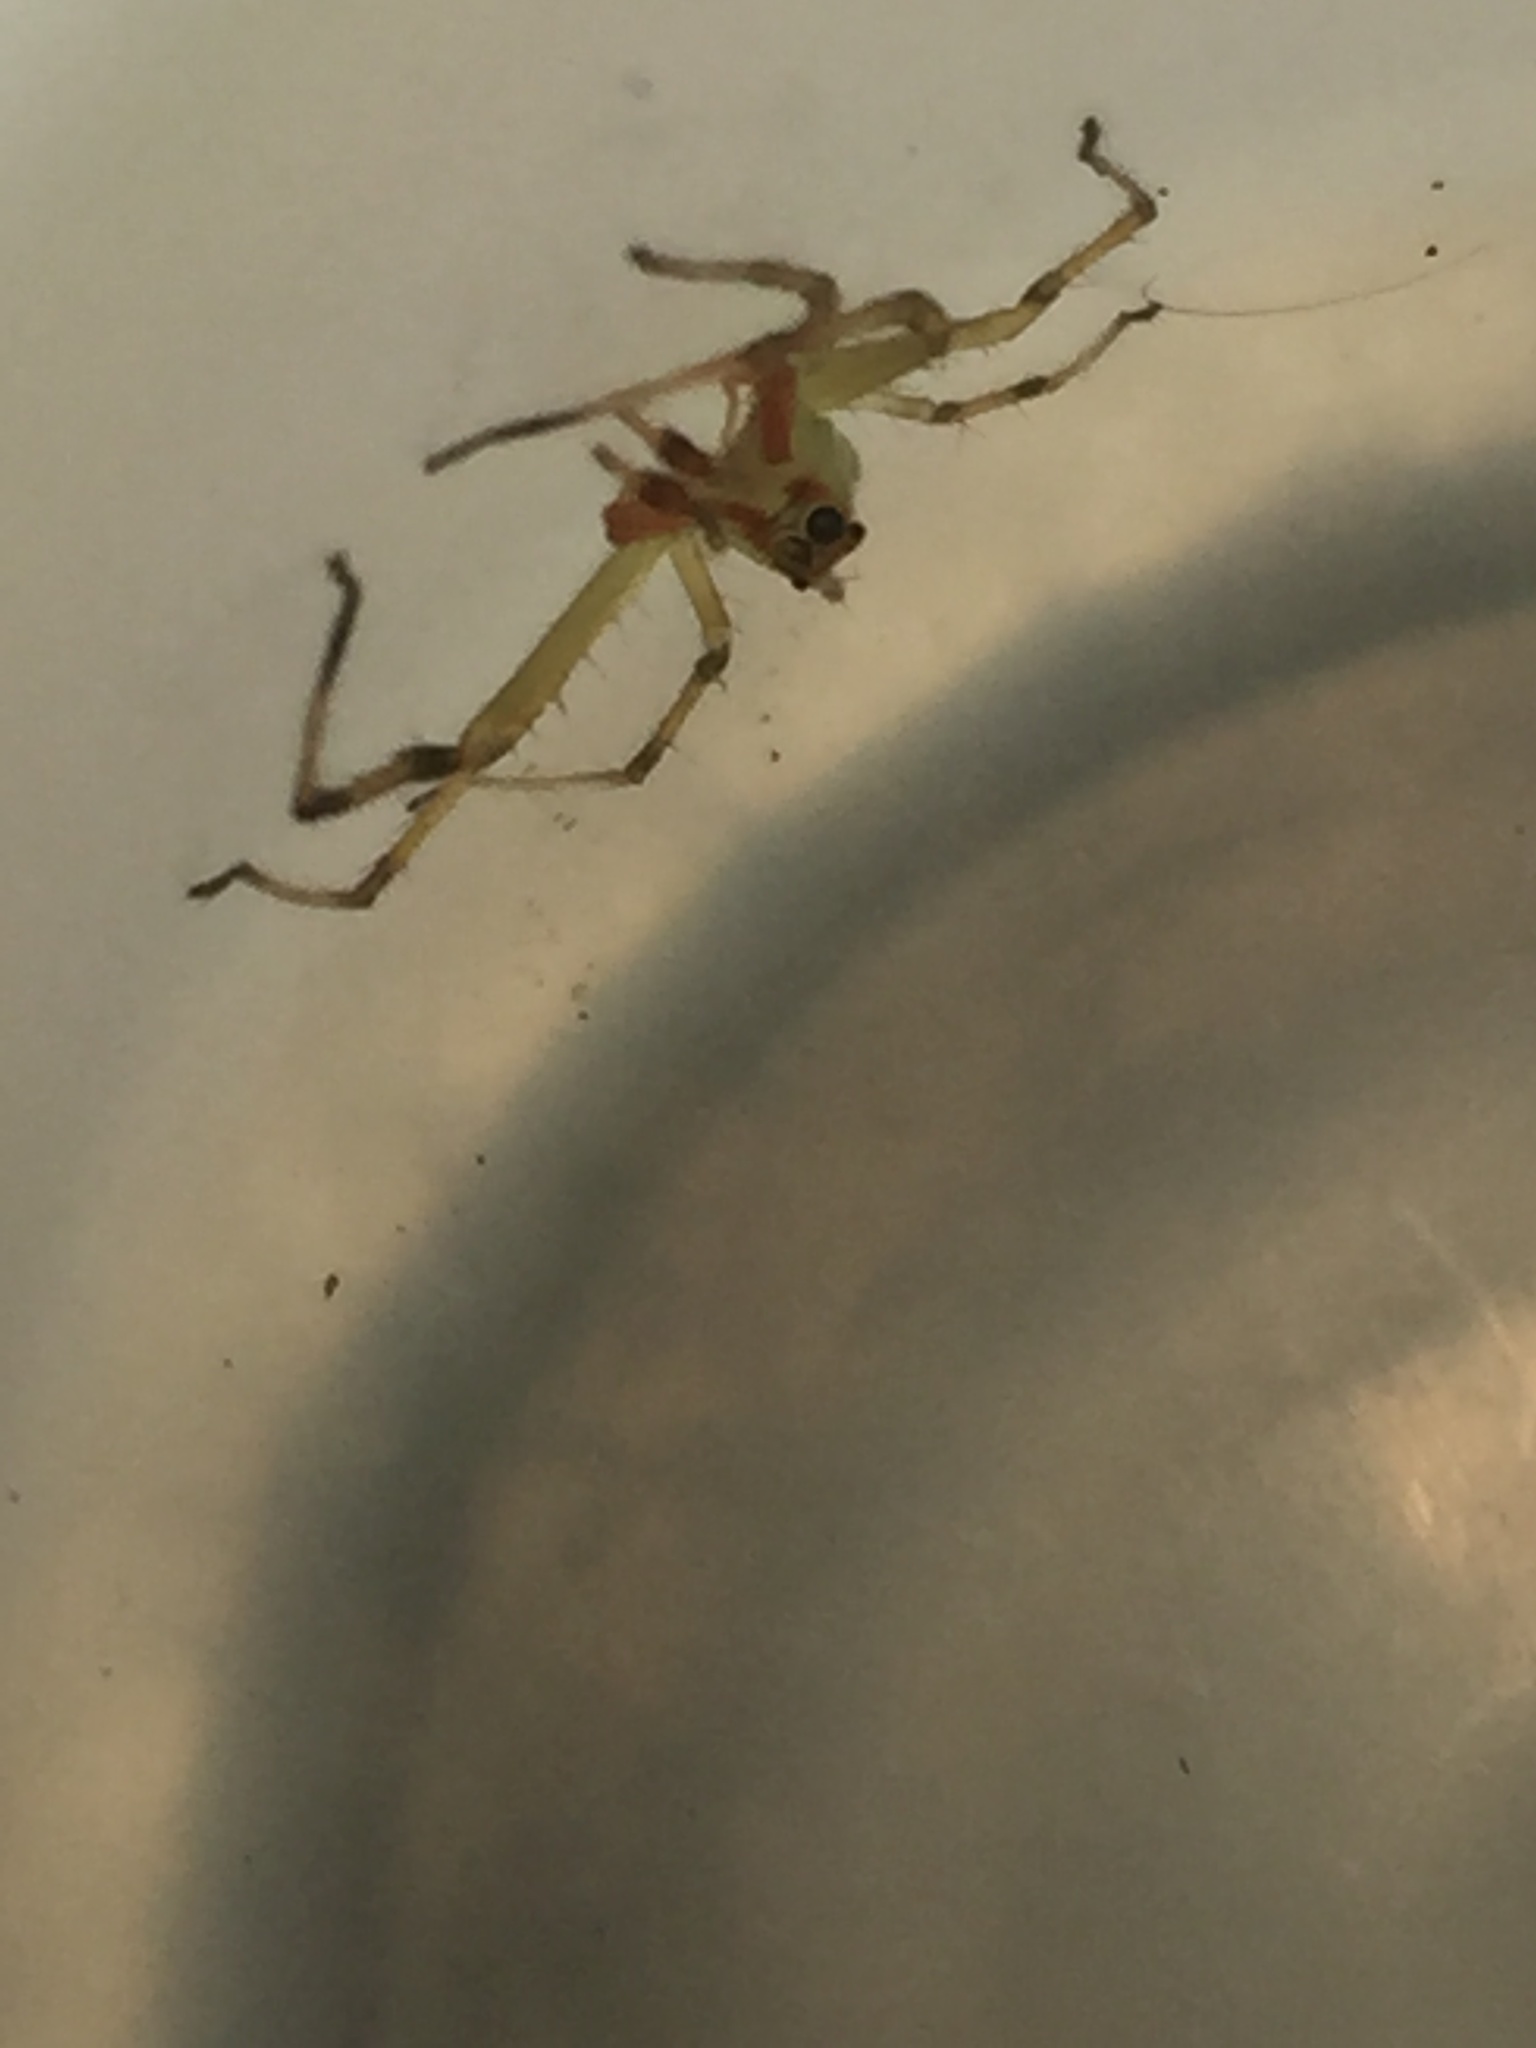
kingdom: Animalia
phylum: Arthropoda
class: Arachnida
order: Araneae
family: Salticidae
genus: Lyssomanes
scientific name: Lyssomanes viridis
